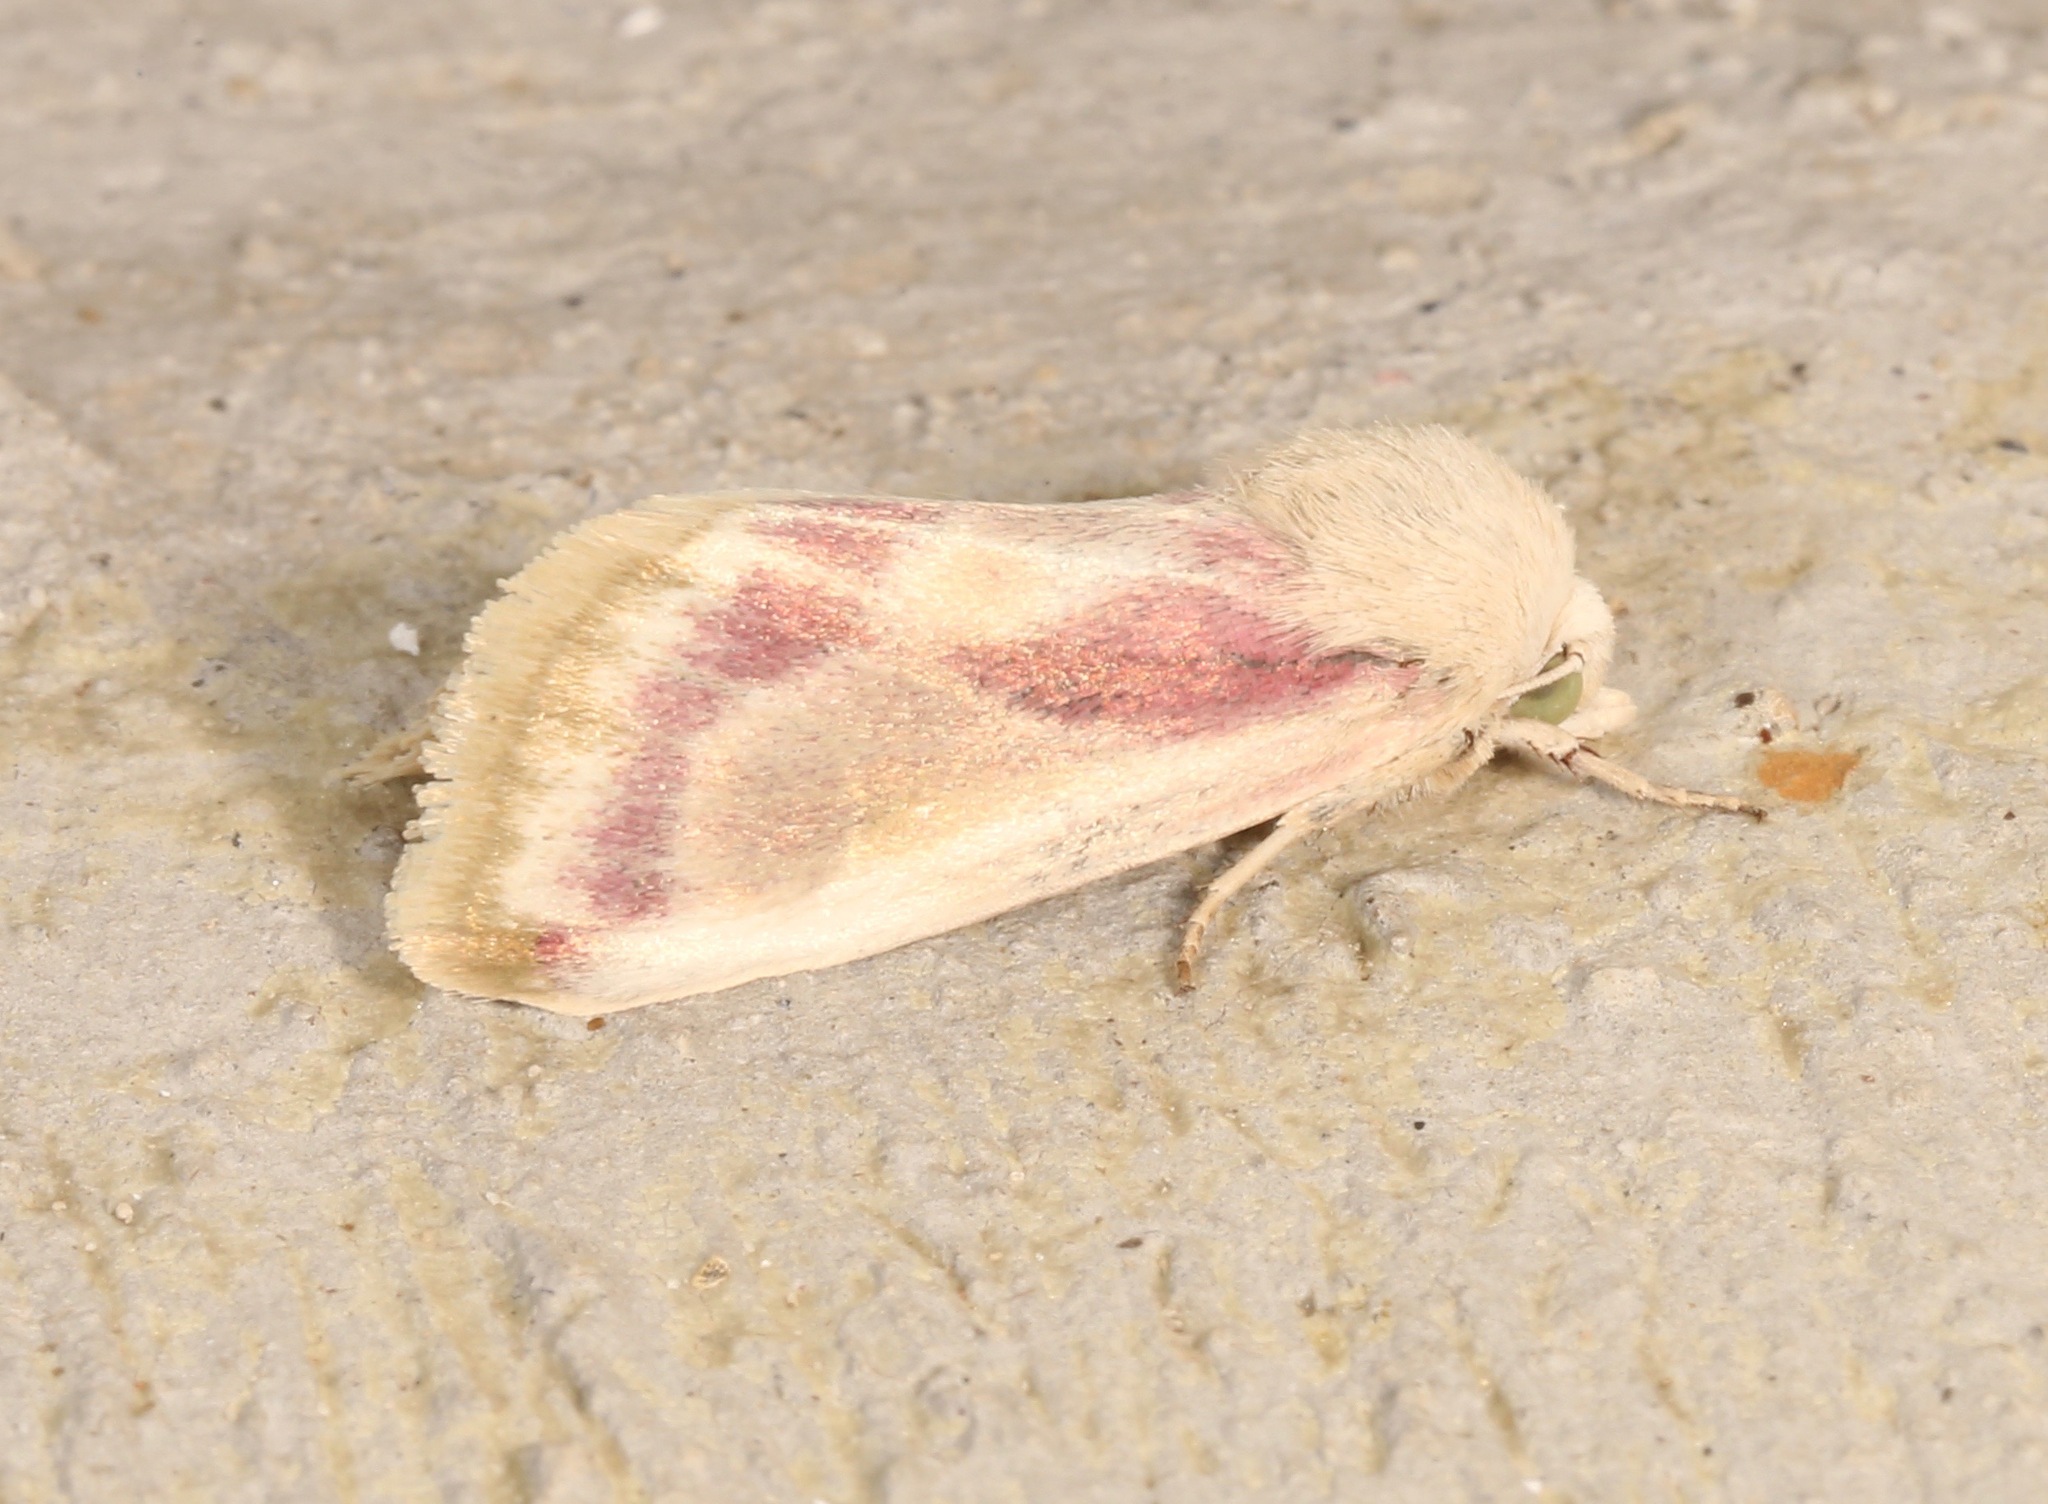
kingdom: Animalia
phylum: Arthropoda
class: Insecta
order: Lepidoptera
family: Noctuidae
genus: Schinia
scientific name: Schinia niveicosta
